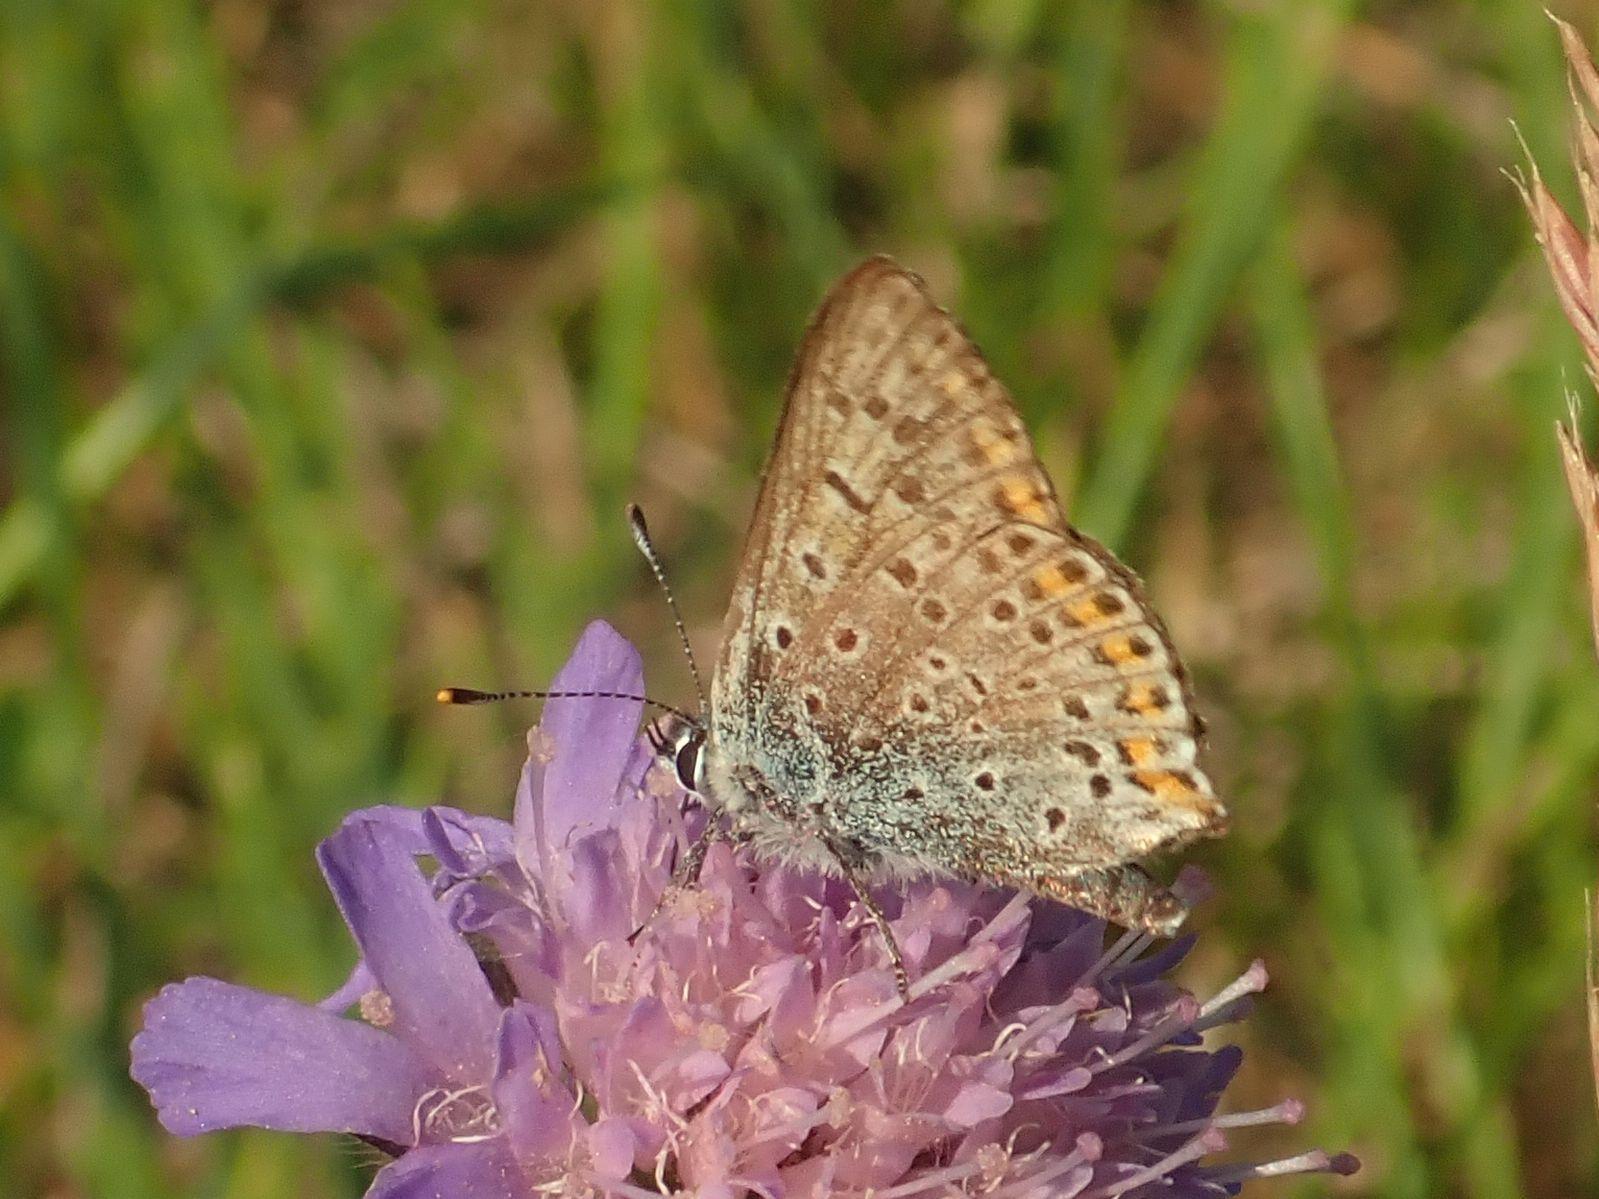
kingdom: Animalia
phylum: Arthropoda
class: Insecta
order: Lepidoptera
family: Lycaenidae
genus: Loweia
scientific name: Loweia tityrus
